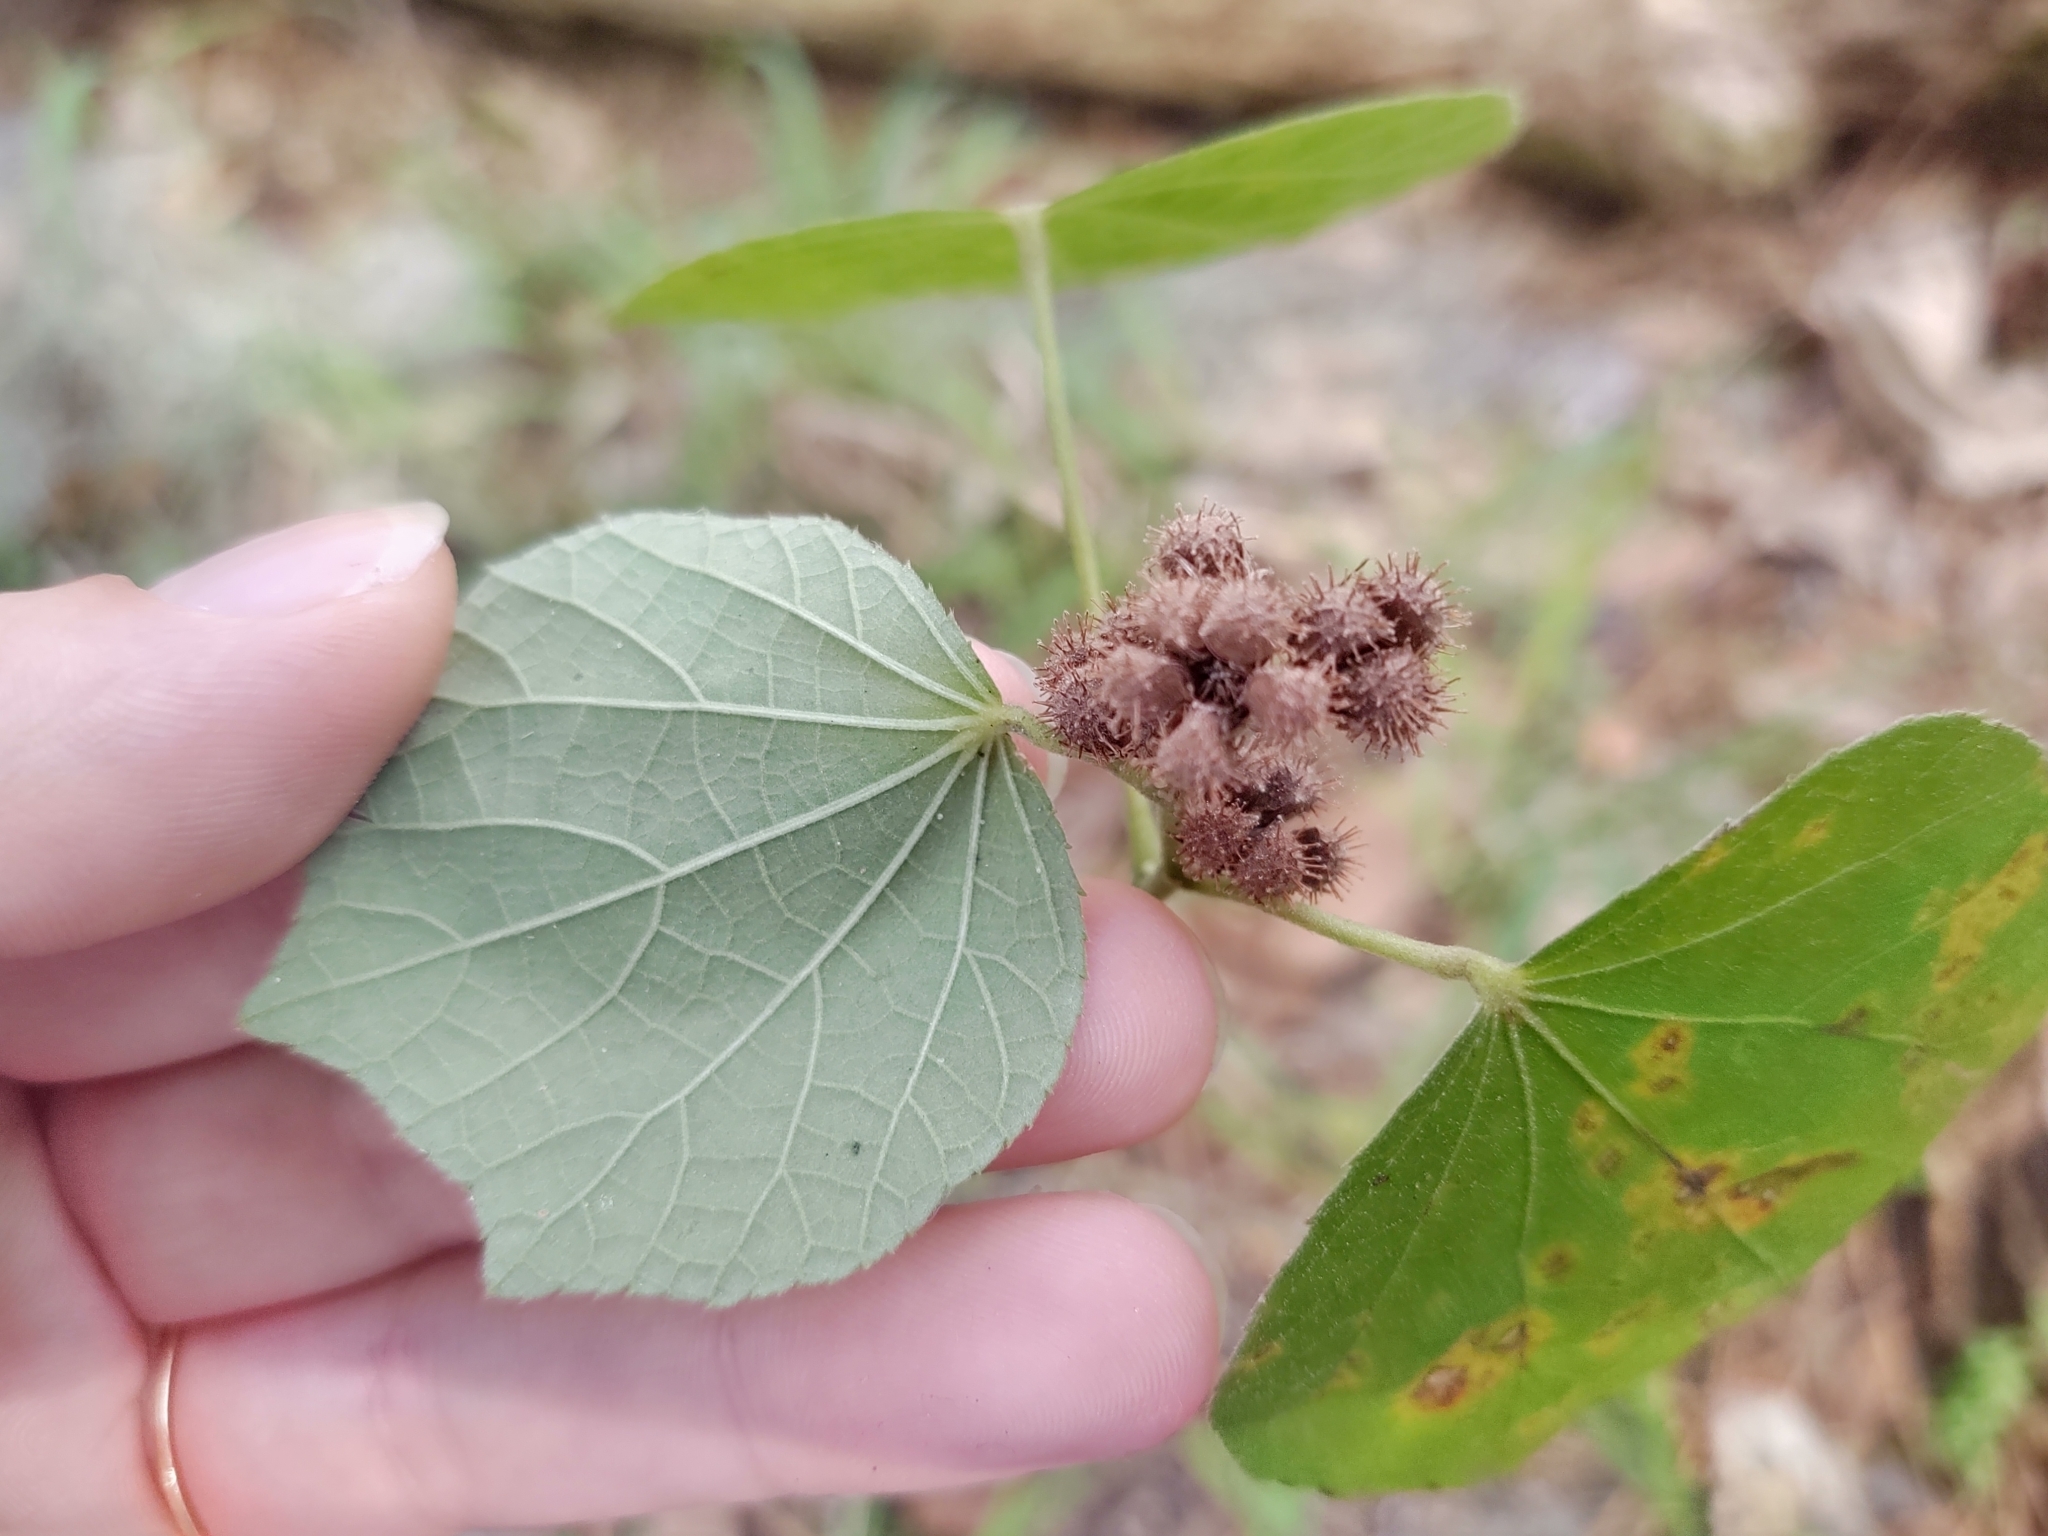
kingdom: Plantae
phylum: Tracheophyta
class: Magnoliopsida
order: Malvales
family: Malvaceae
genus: Urena
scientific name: Urena lobata
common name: Caesarweed
